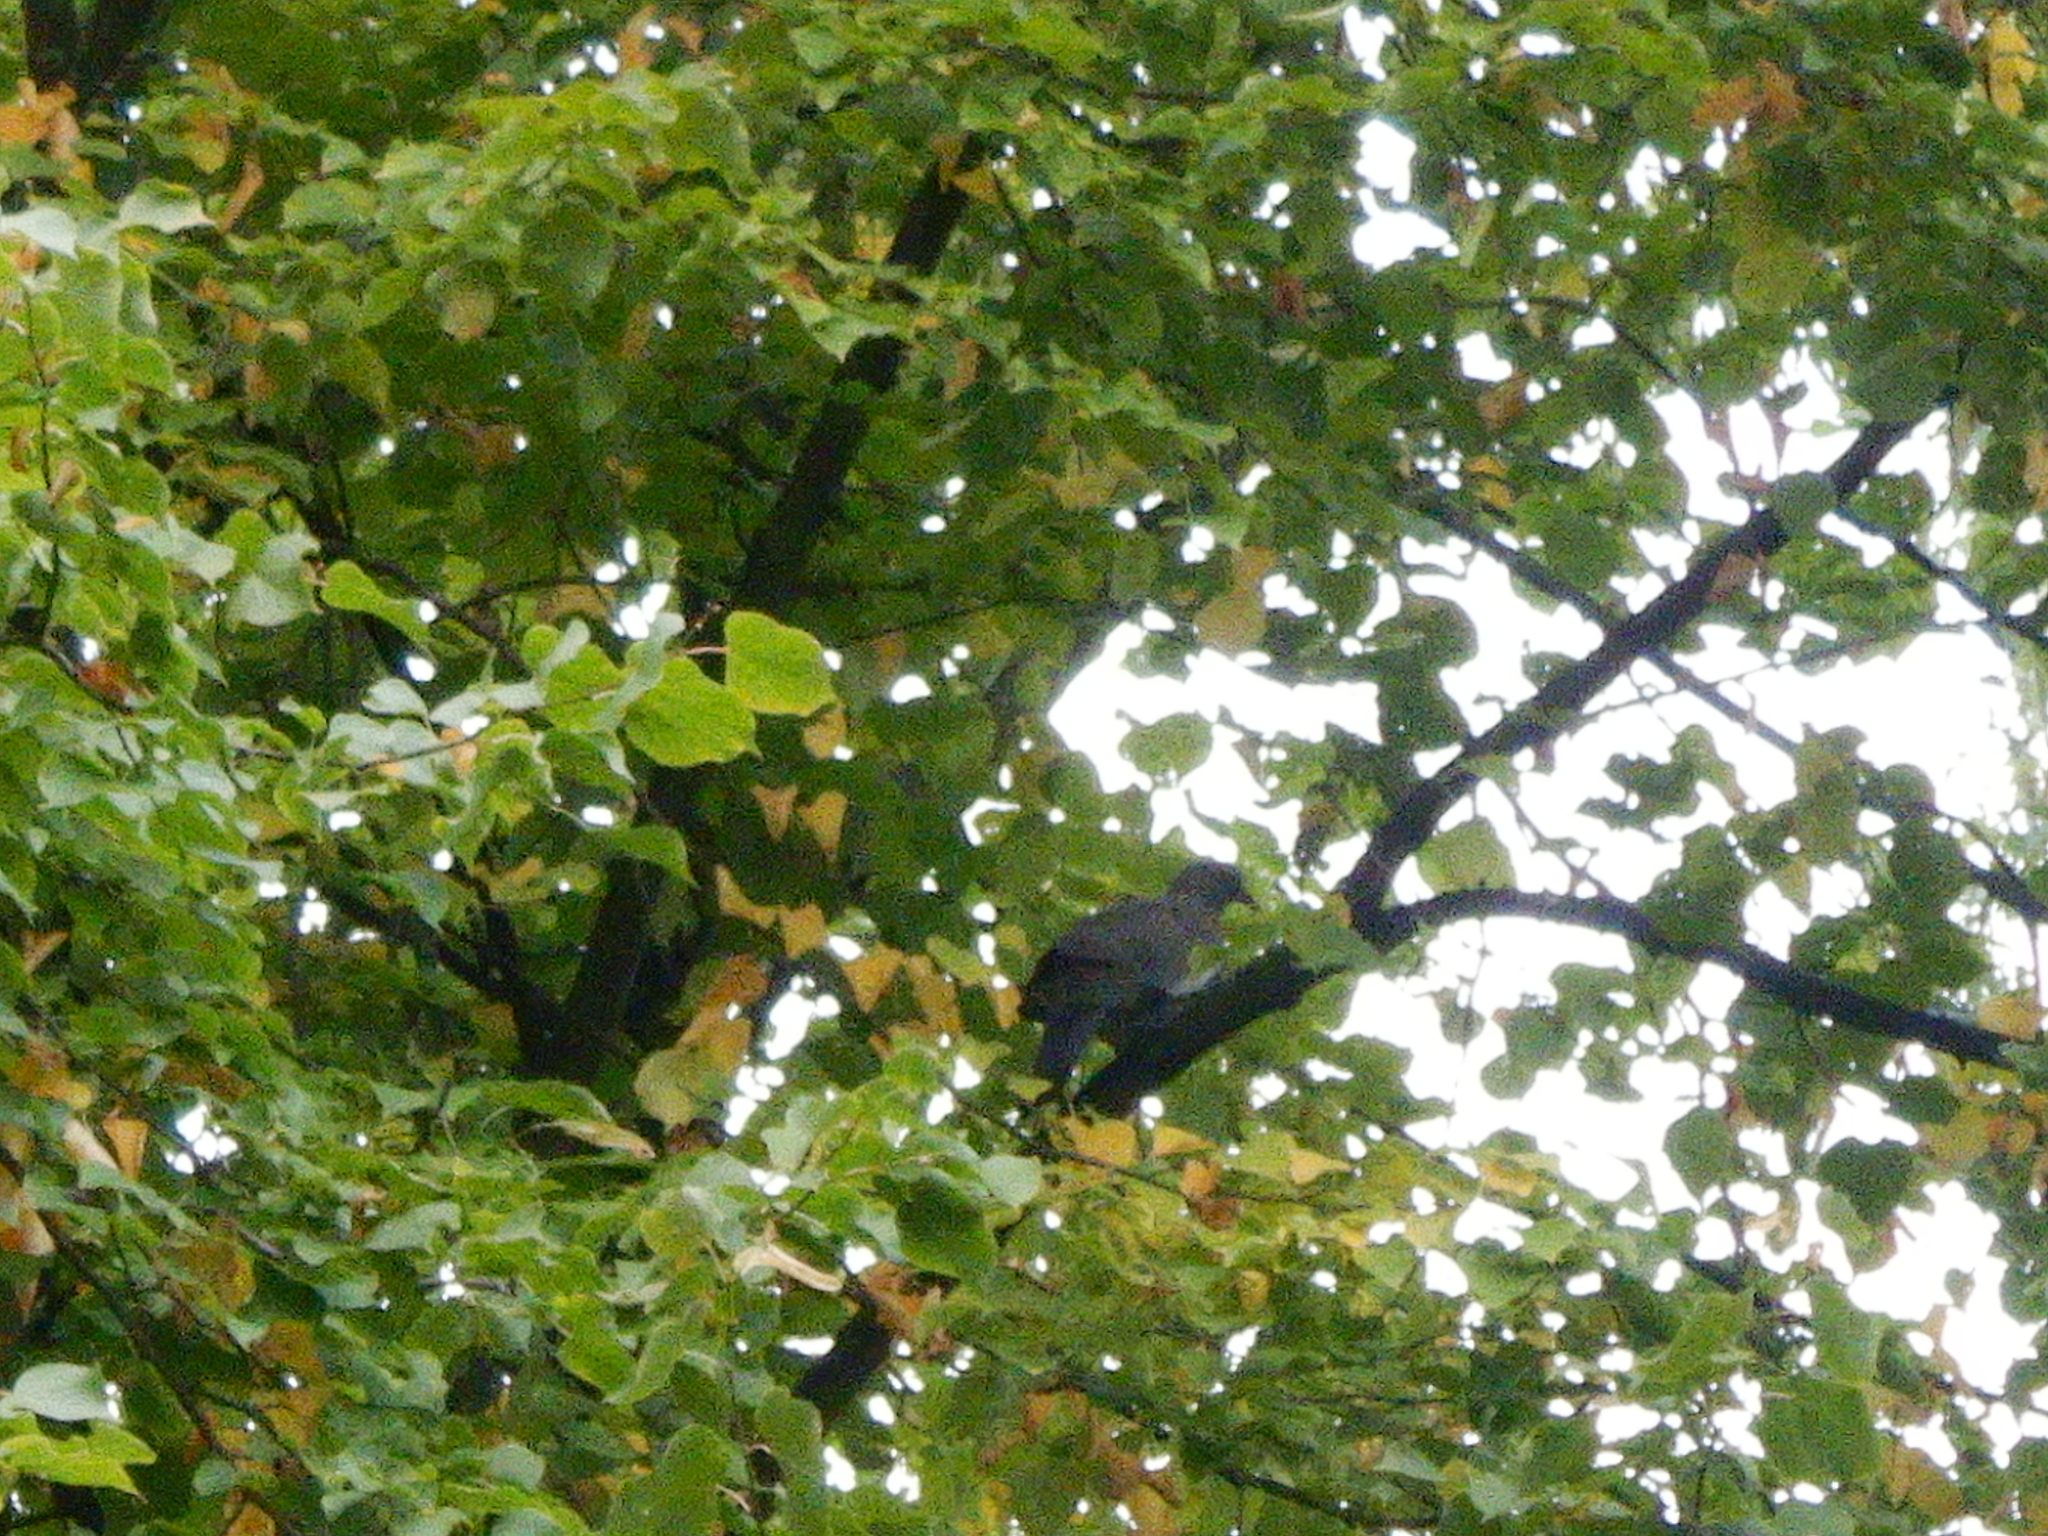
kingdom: Animalia
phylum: Chordata
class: Aves
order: Columbiformes
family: Columbidae
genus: Columba
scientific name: Columba palumbus
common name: Common wood pigeon
